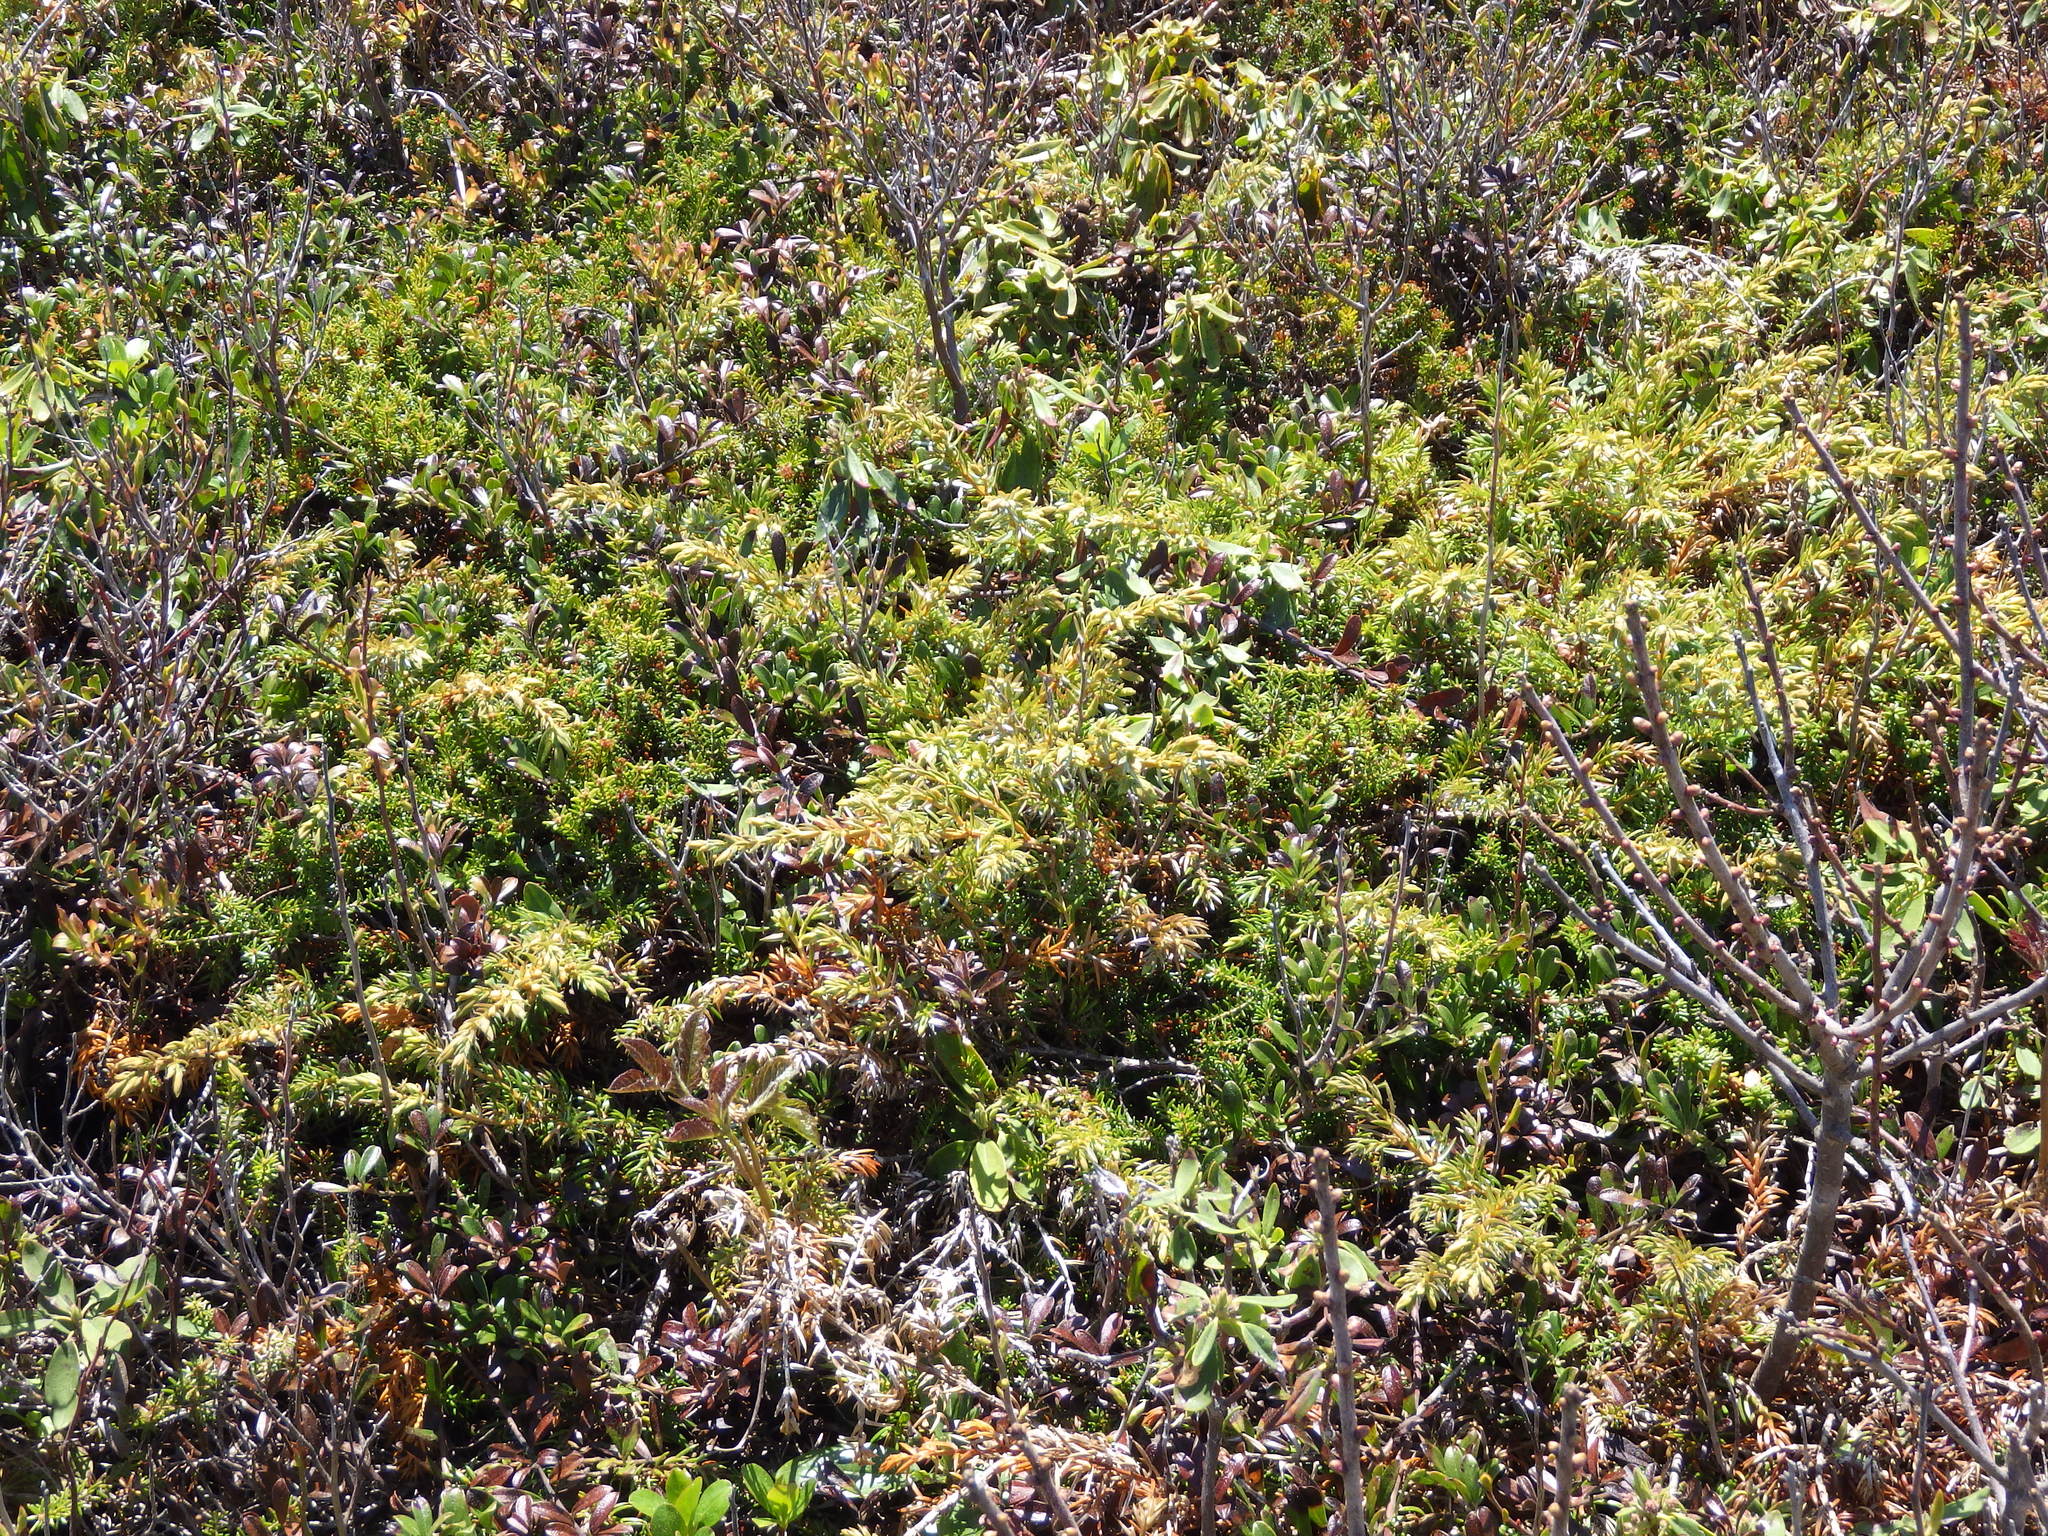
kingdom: Plantae
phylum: Tracheophyta
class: Pinopsida
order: Pinales
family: Cupressaceae
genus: Juniperus
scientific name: Juniperus communis
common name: Common juniper
